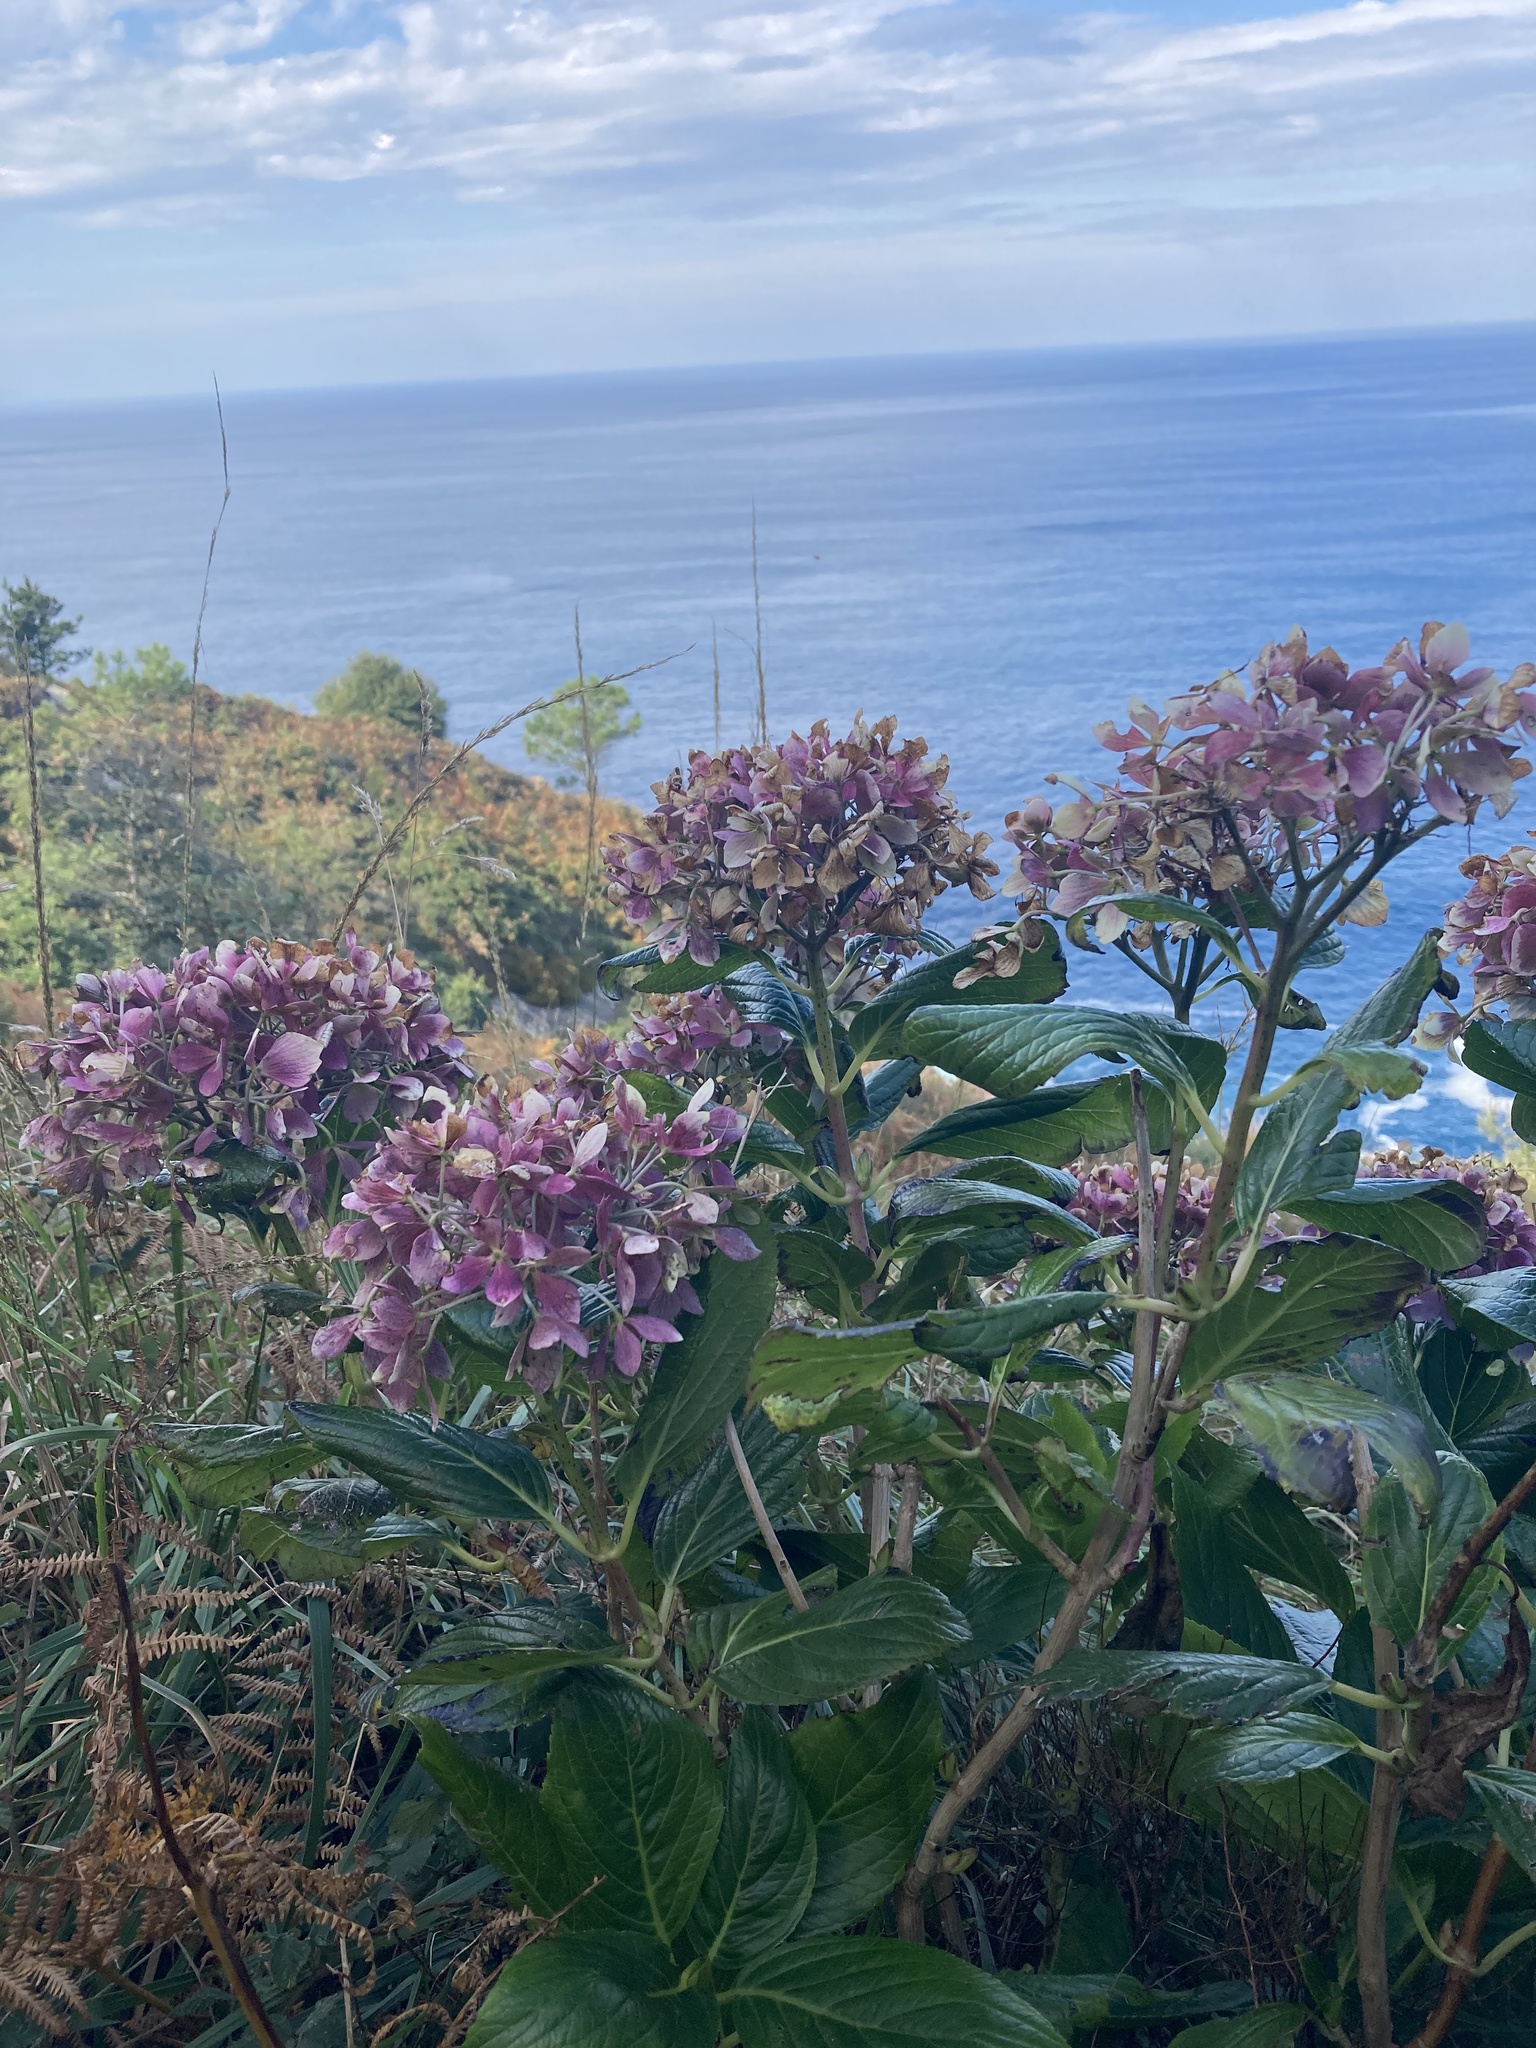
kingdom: Plantae
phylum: Tracheophyta
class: Magnoliopsida
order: Cornales
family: Hydrangeaceae
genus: Hydrangea
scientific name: Hydrangea macrophylla
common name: Hydrangea
